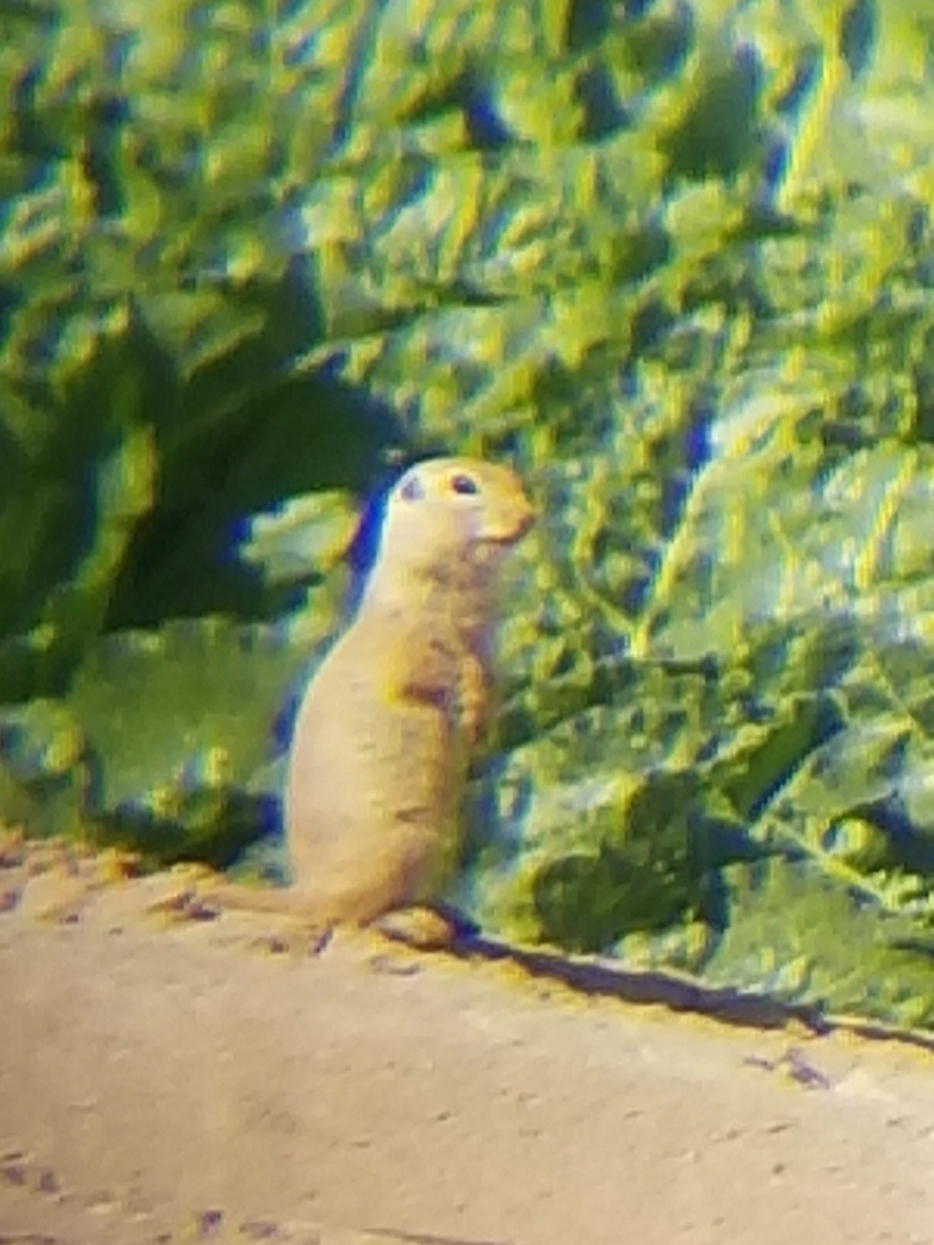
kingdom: Animalia
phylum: Chordata
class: Mammalia
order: Rodentia
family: Sciuridae
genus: Xerospermophilus
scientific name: Xerospermophilus tereticaudus
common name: Round-tailed ground squirrel
